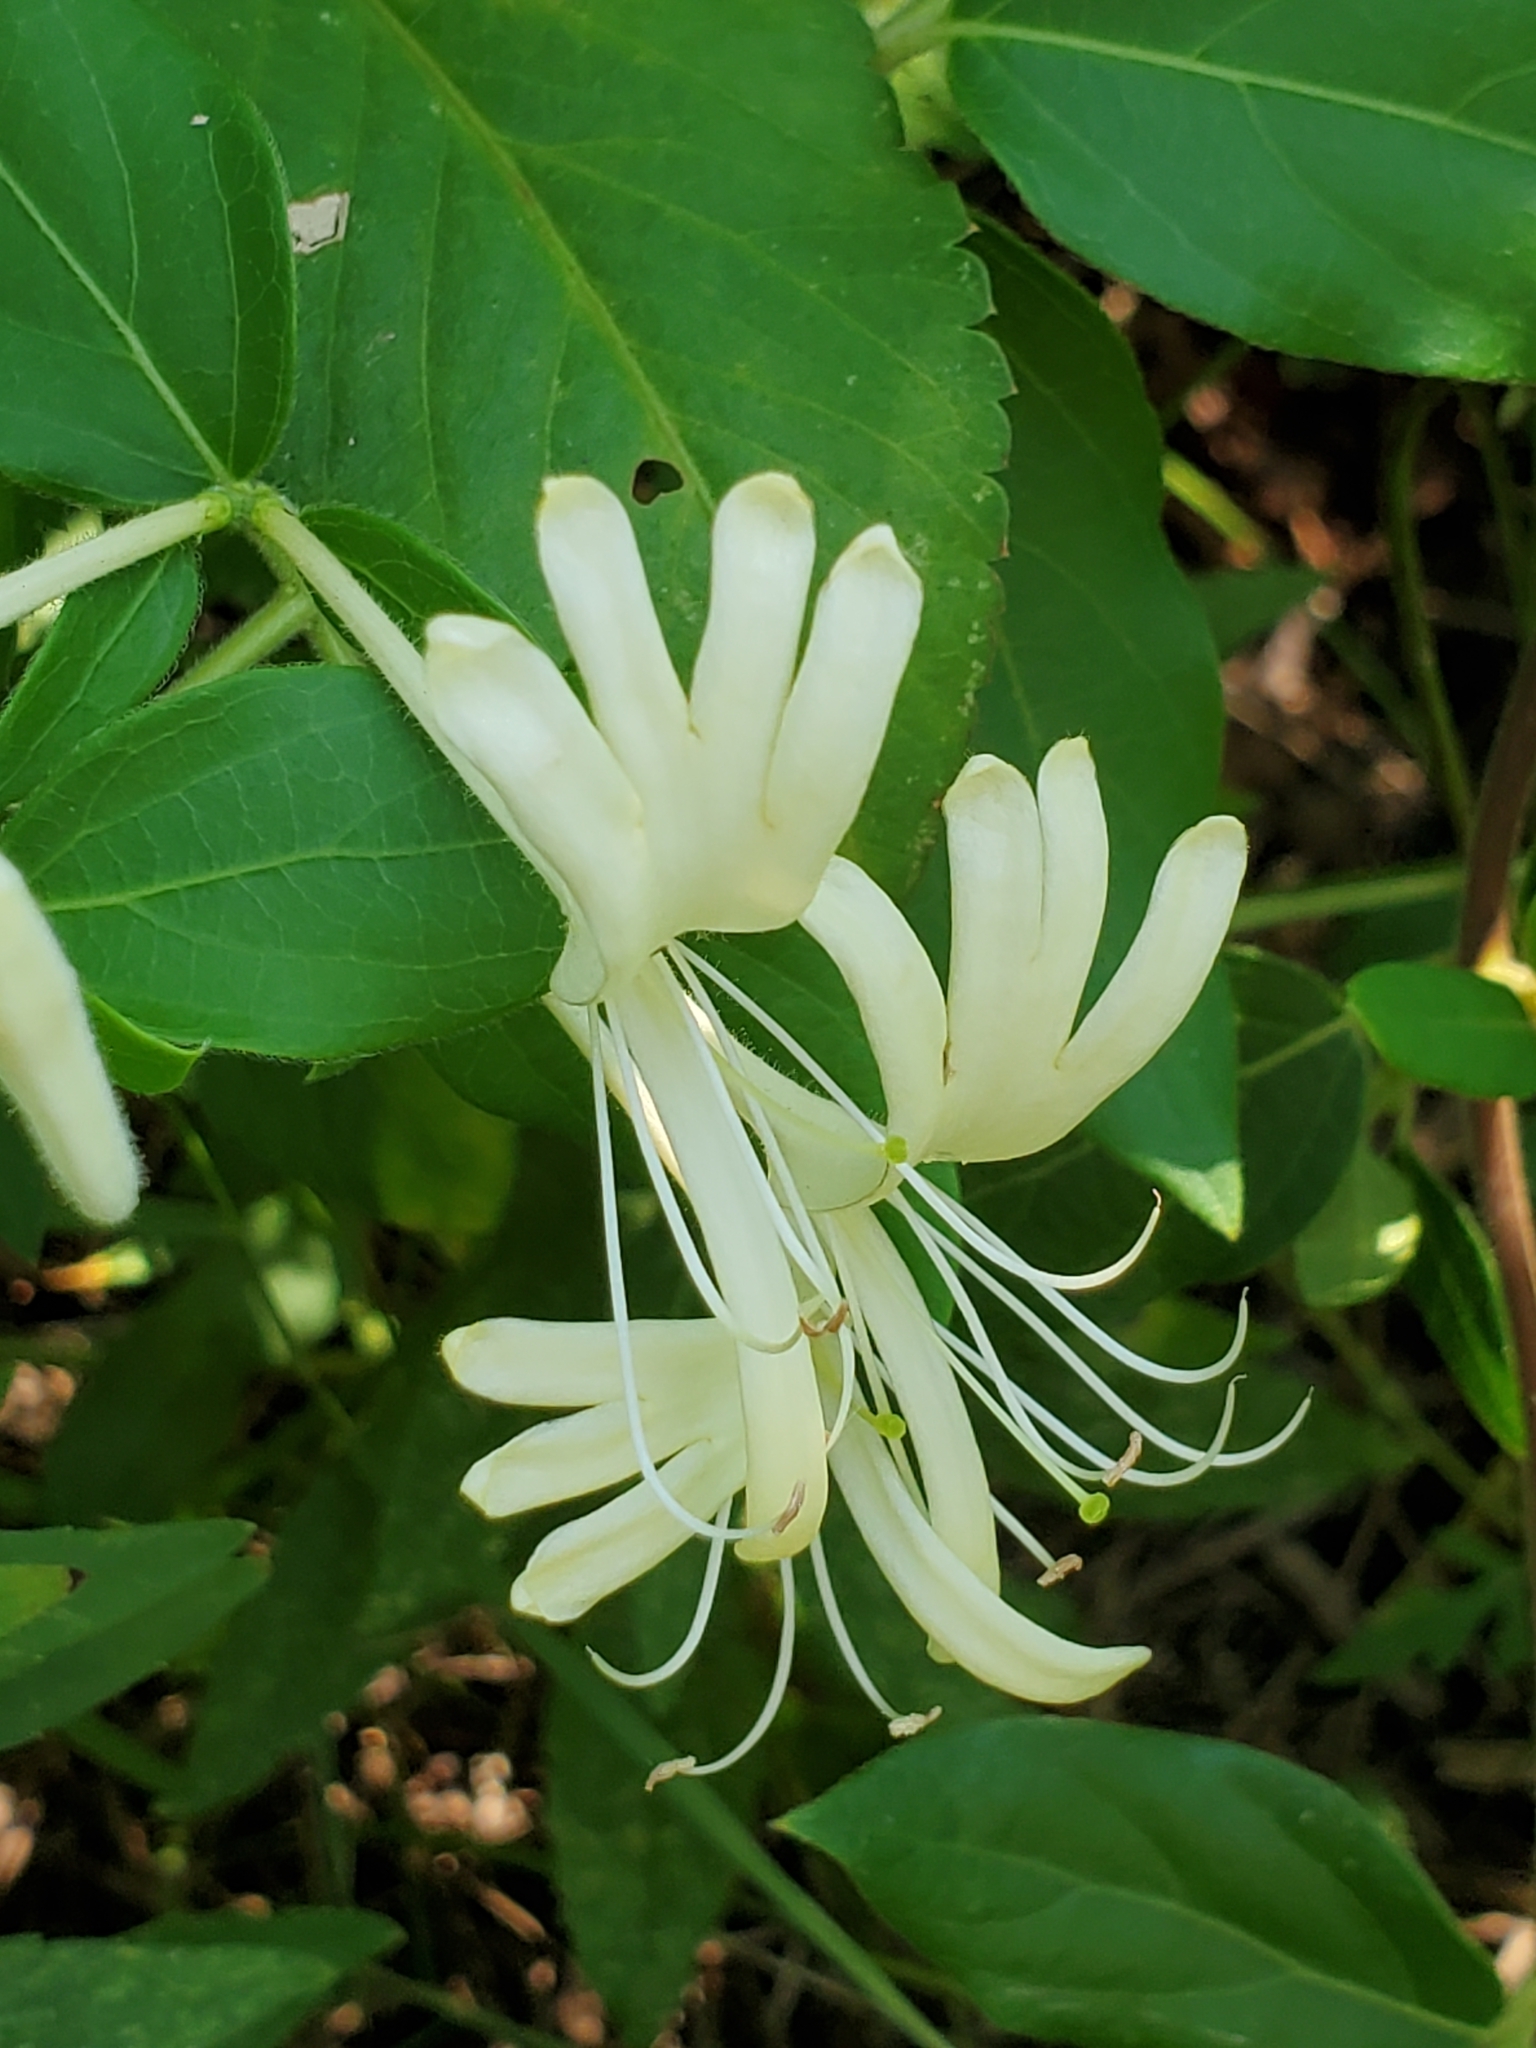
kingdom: Plantae
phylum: Tracheophyta
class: Magnoliopsida
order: Dipsacales
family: Caprifoliaceae
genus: Lonicera
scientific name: Lonicera japonica
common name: Japanese honeysuckle
